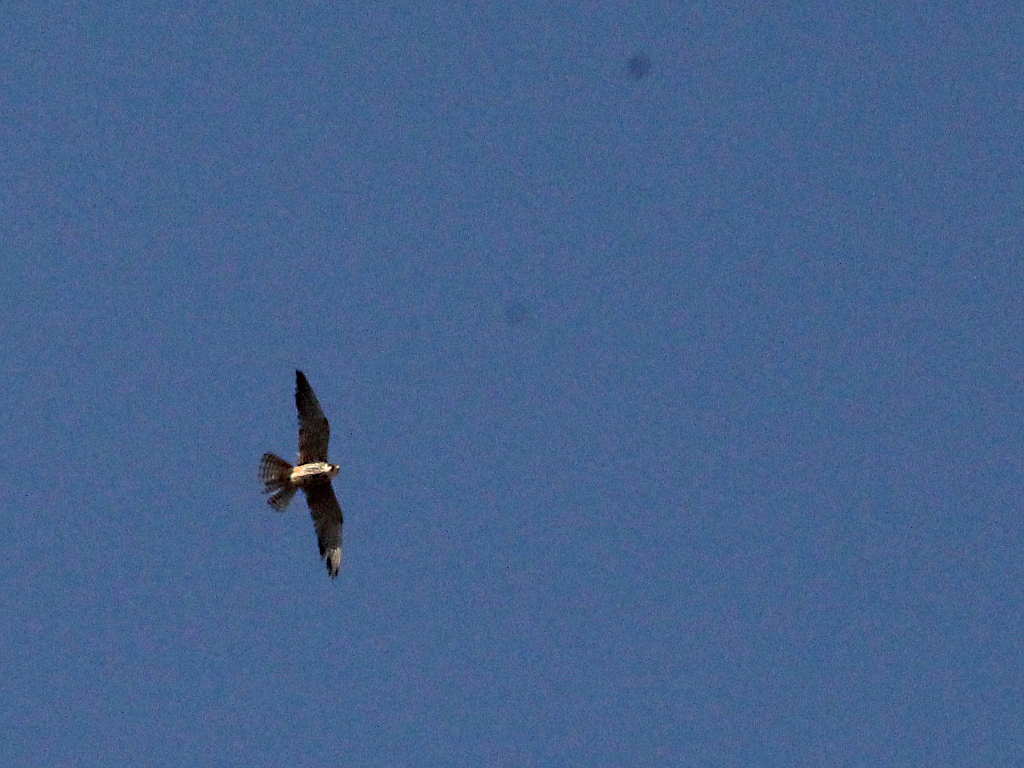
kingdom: Animalia
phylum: Chordata
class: Aves
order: Falconiformes
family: Falconidae
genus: Falco
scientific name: Falco subbuteo
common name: Eurasian hobby
